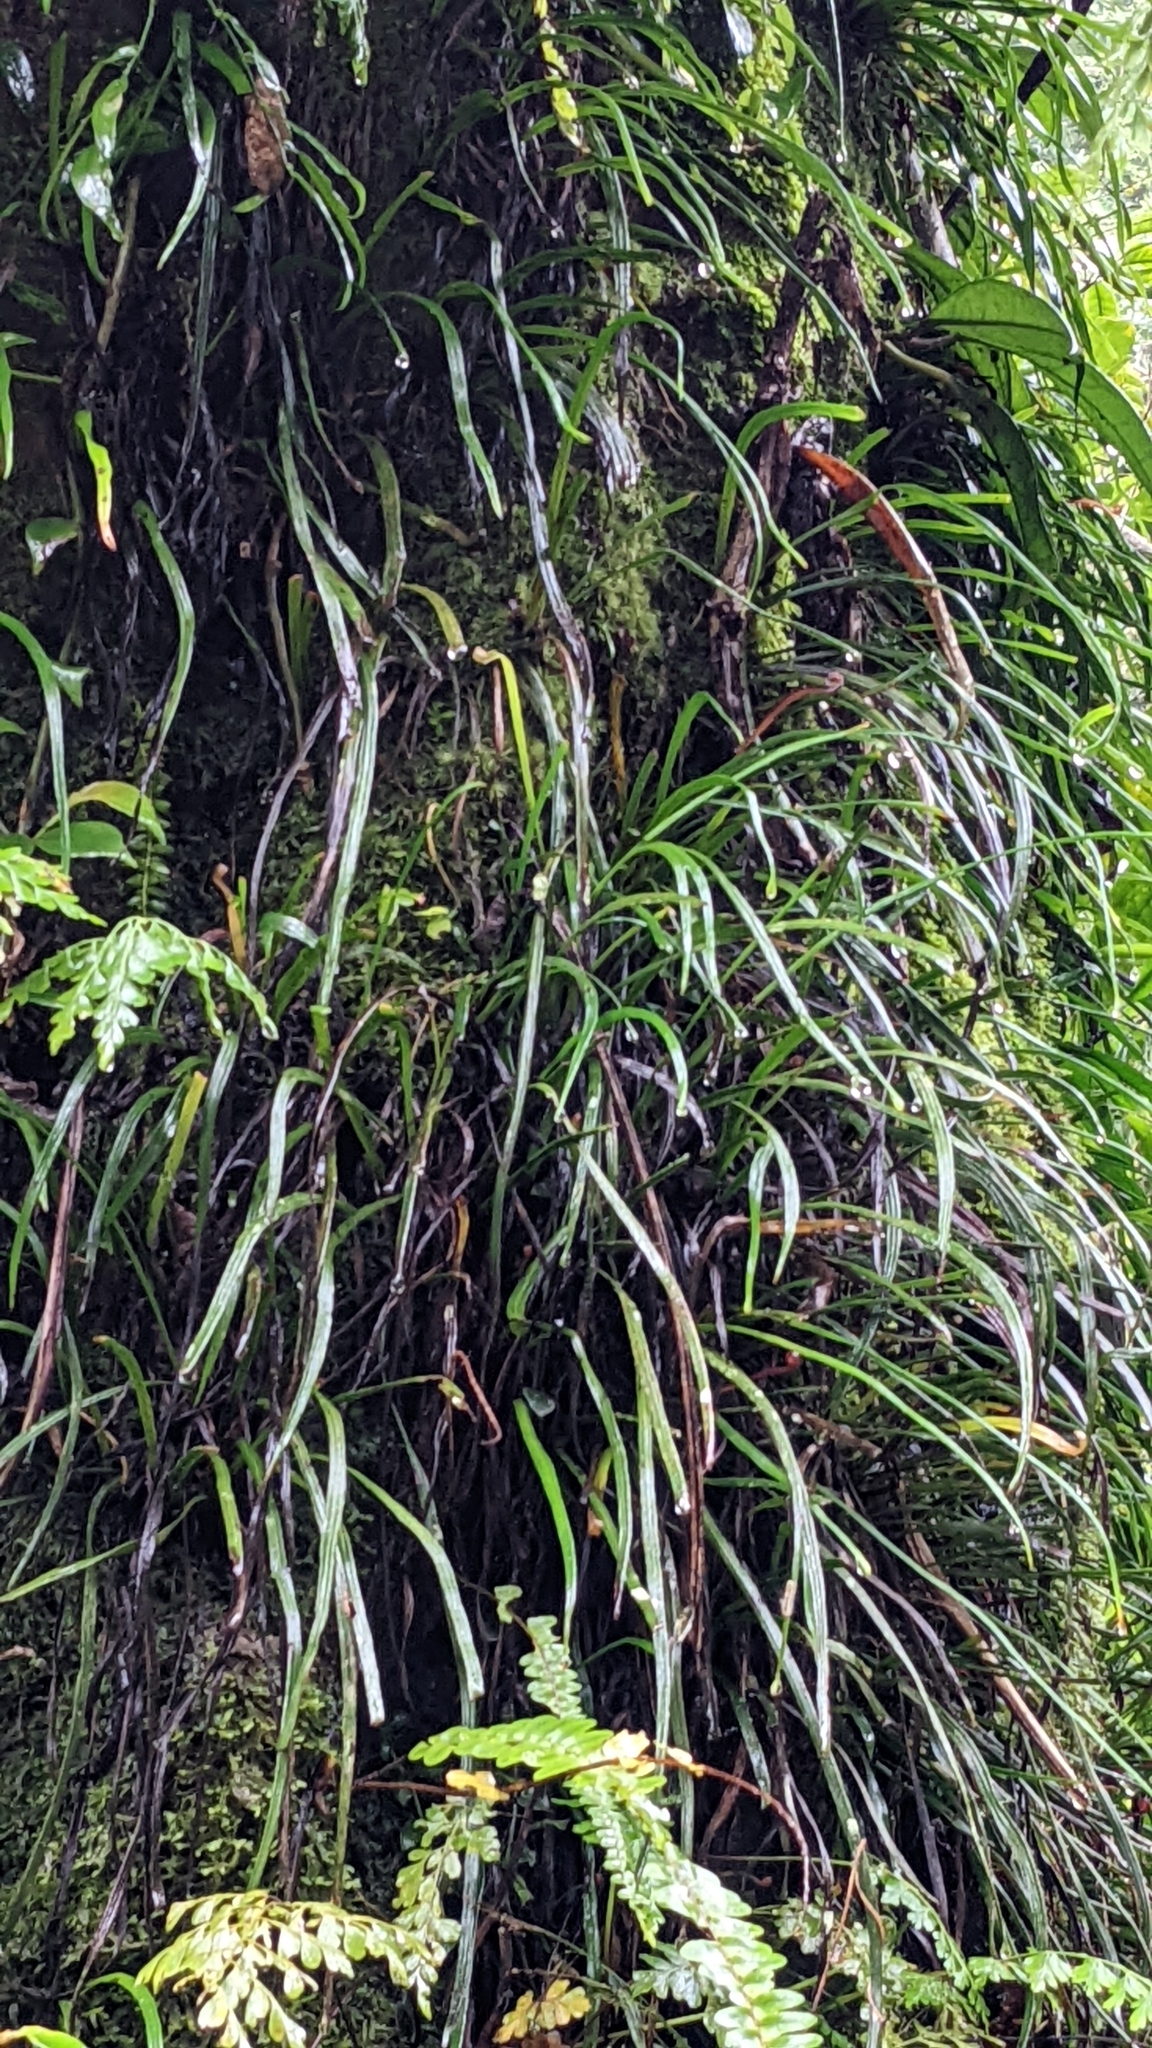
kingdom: Plantae
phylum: Tracheophyta
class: Polypodiopsida
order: Polypodiales
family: Pteridaceae
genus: Haplopteris
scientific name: Haplopteris anguste-elongata
